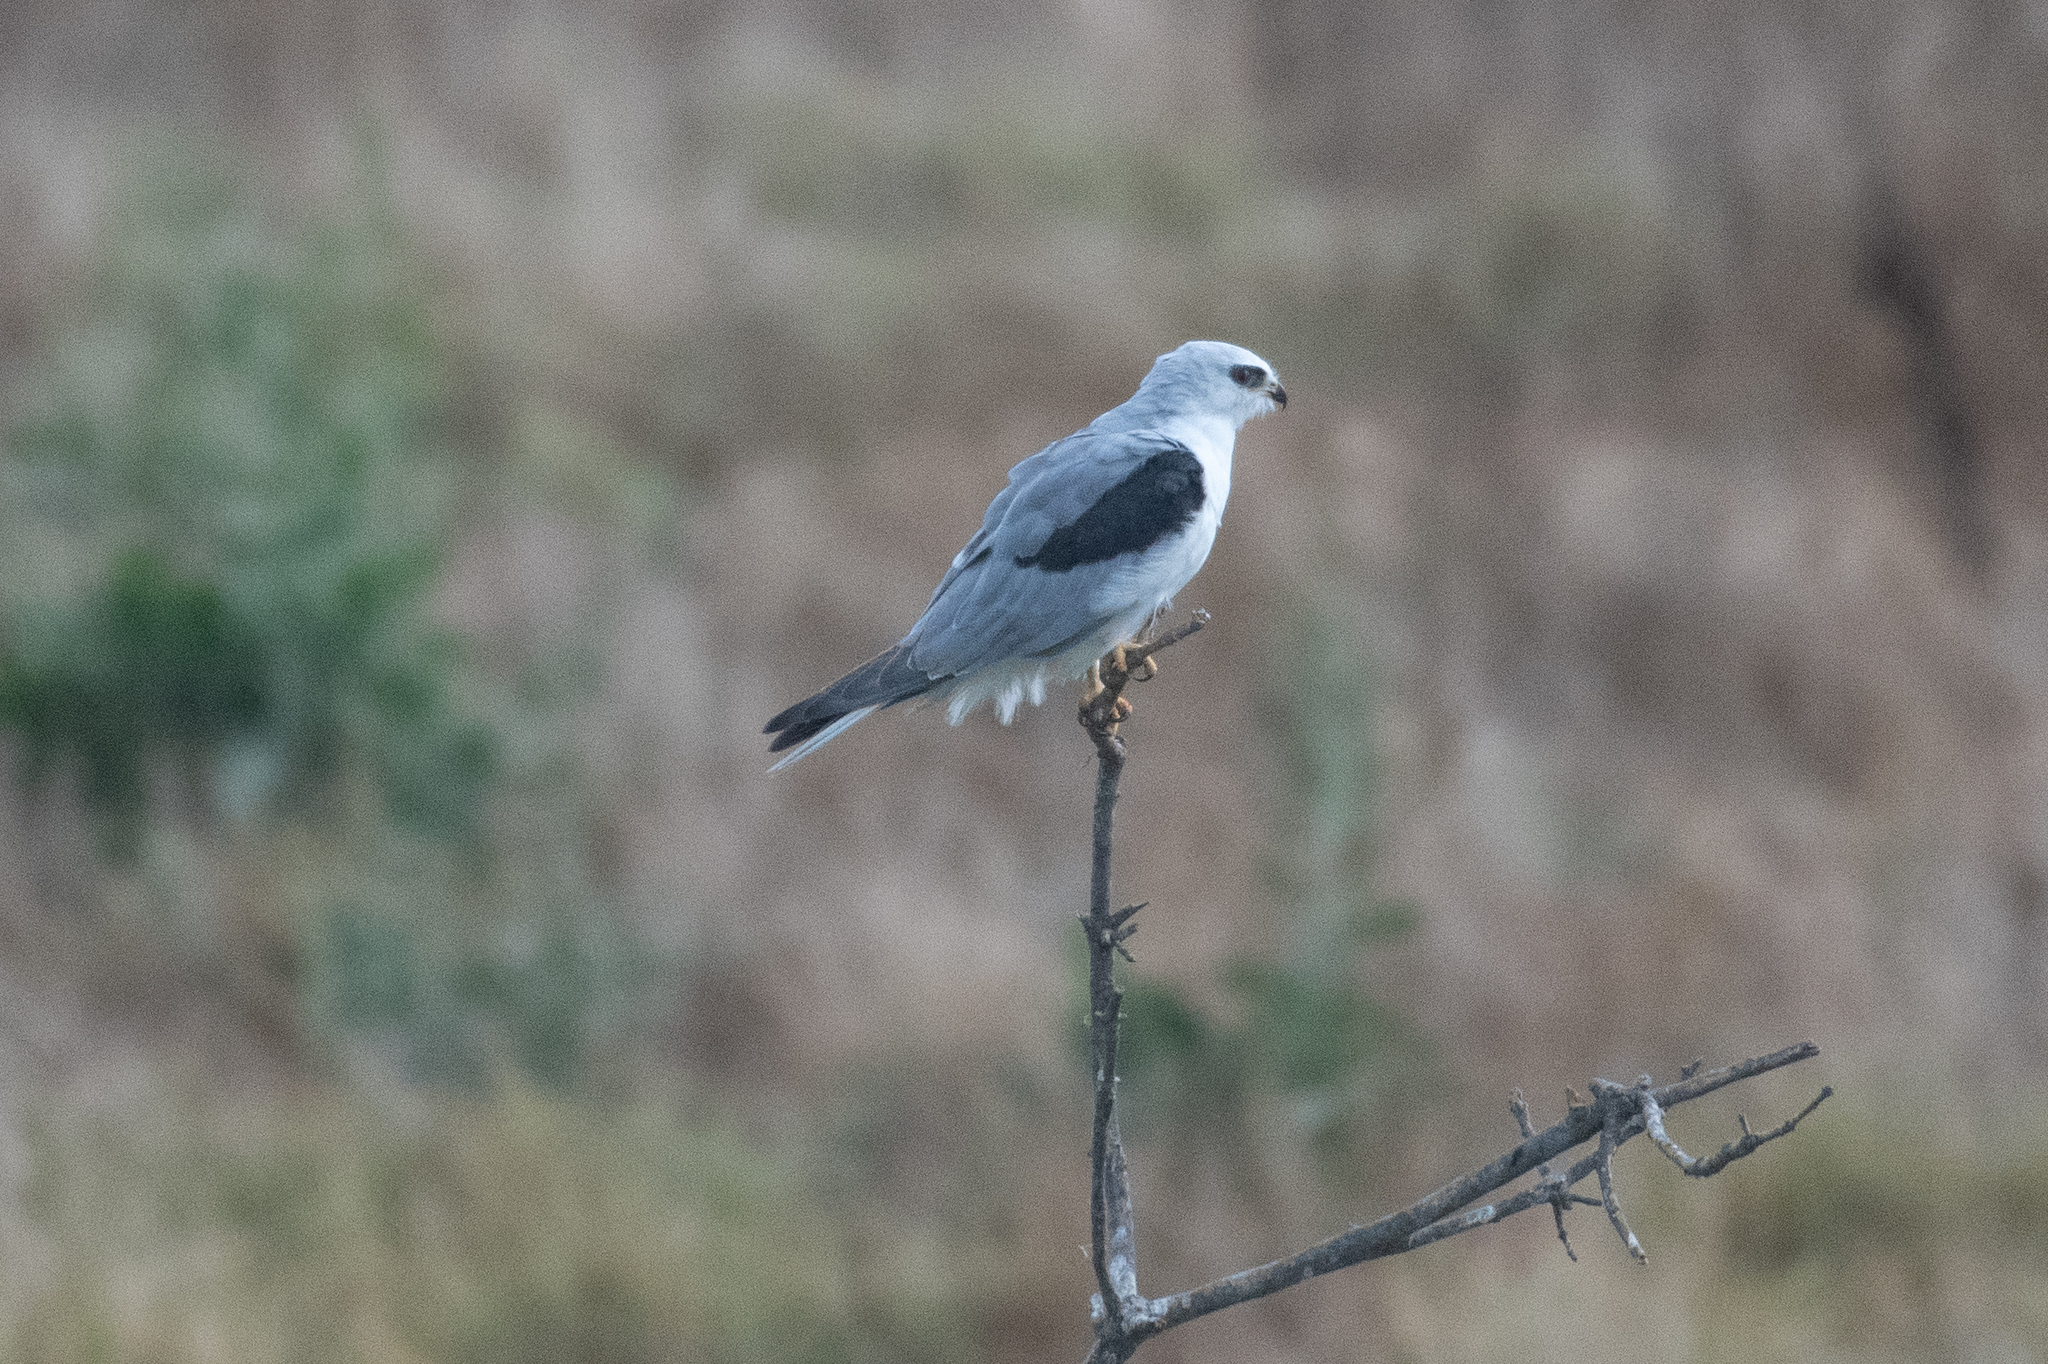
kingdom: Animalia
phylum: Chordata
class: Aves
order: Accipitriformes
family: Accipitridae
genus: Elanus
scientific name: Elanus leucurus
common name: White-tailed kite
